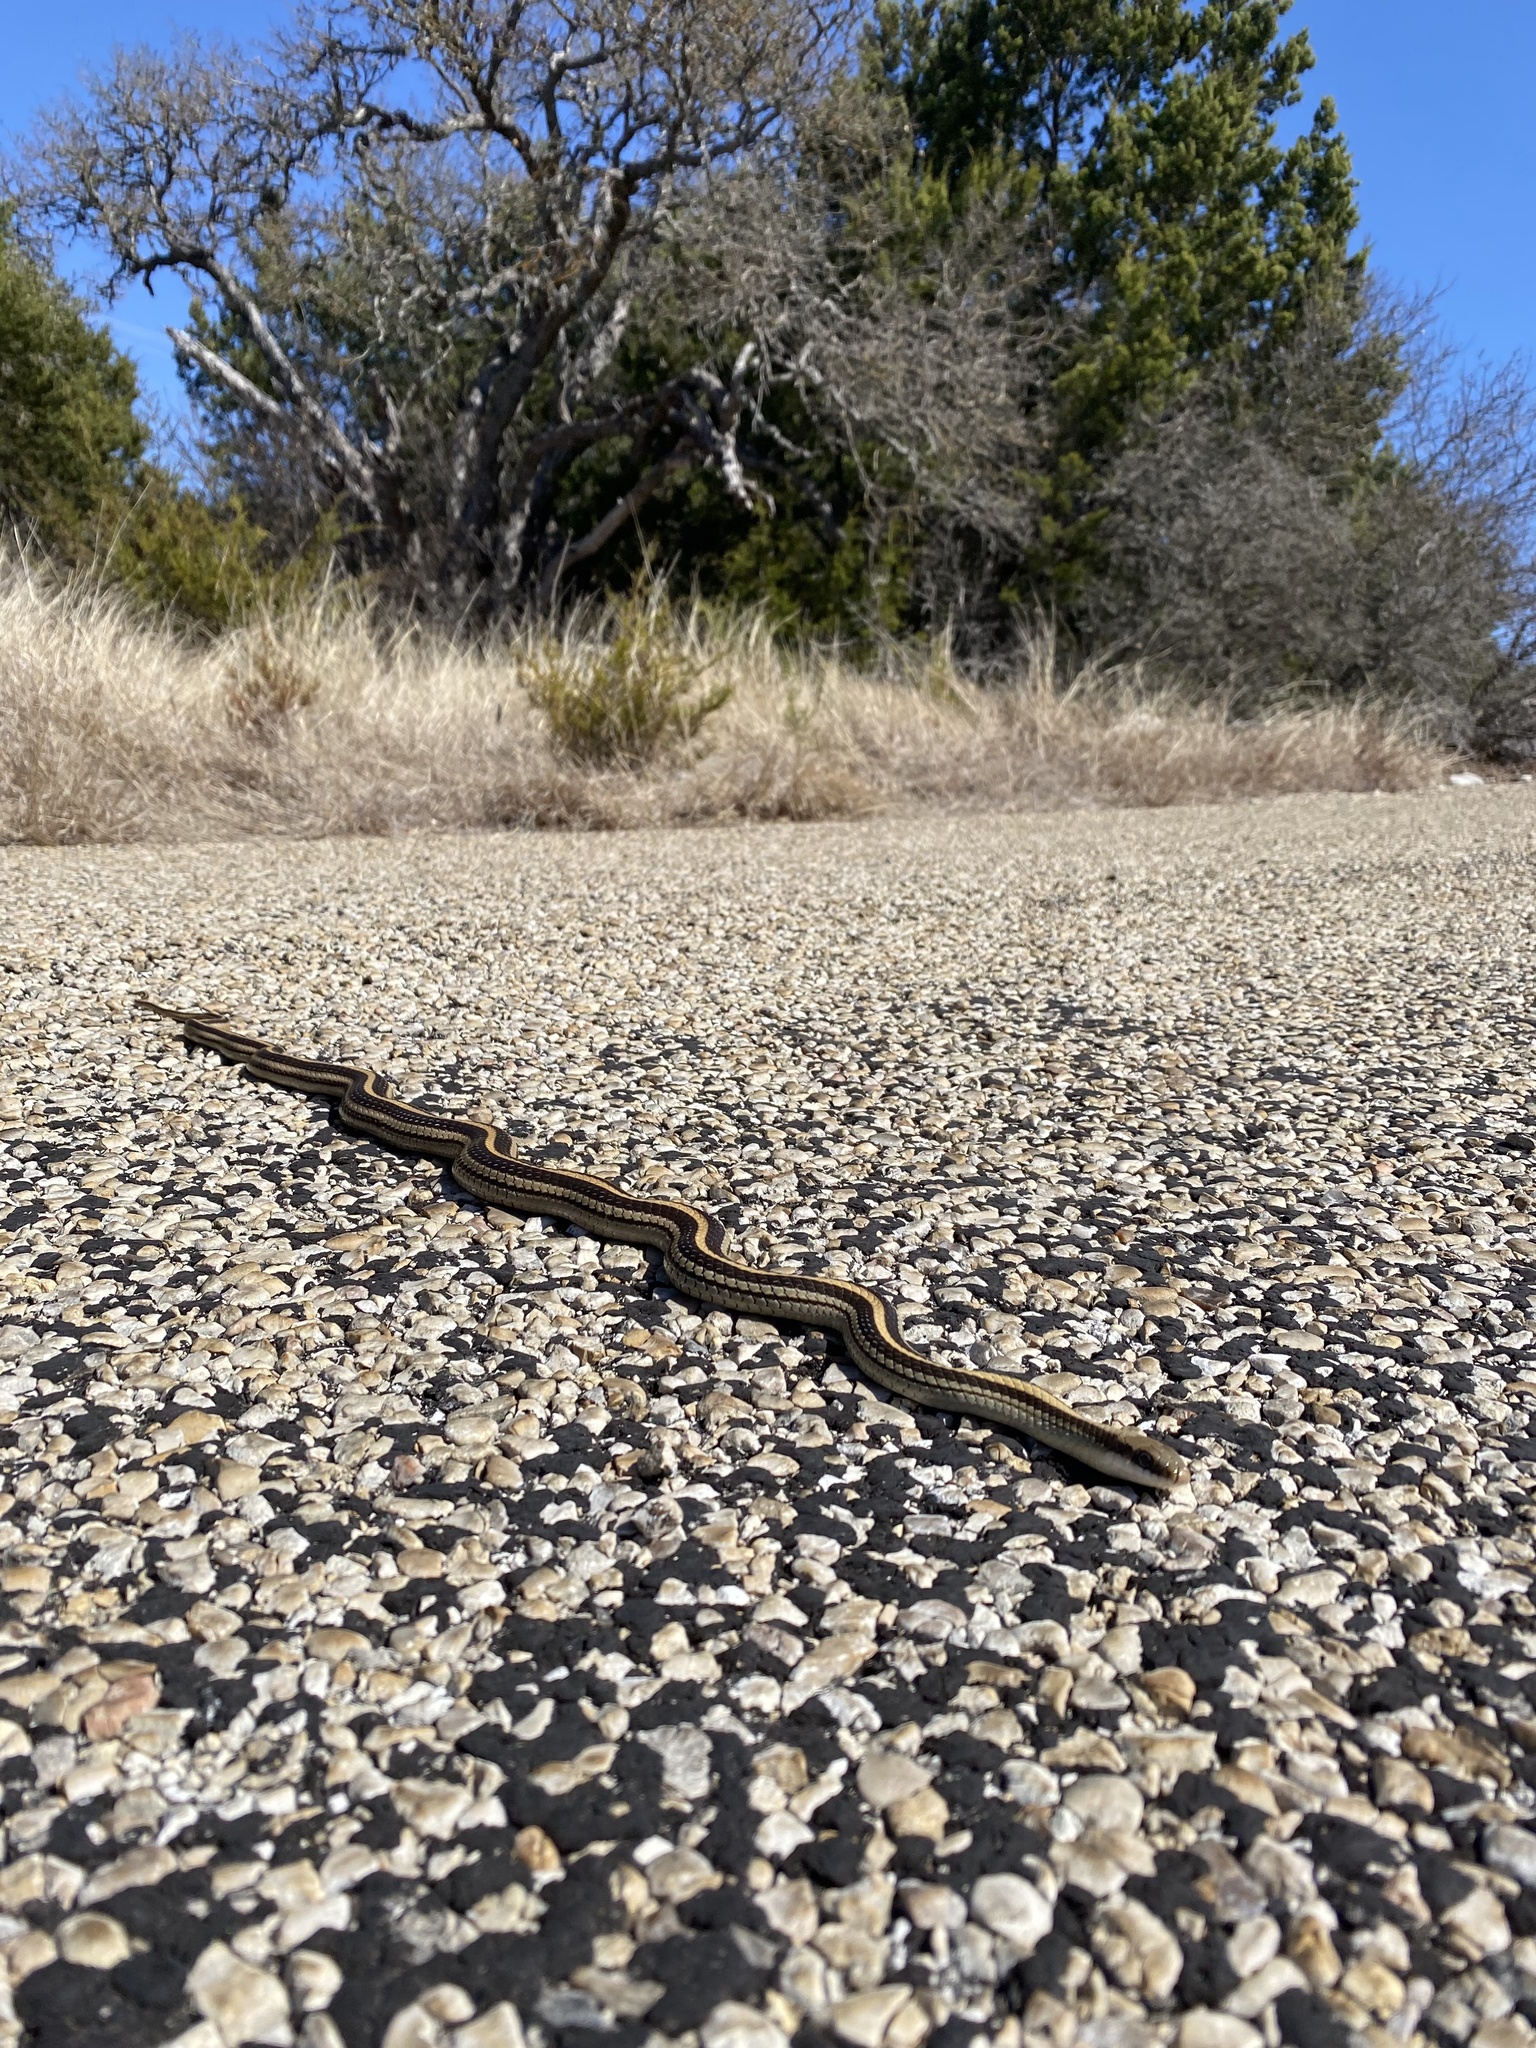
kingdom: Animalia
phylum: Chordata
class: Squamata
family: Colubridae
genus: Salvadora
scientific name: Salvadora lineata
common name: Texas patchnose snake
